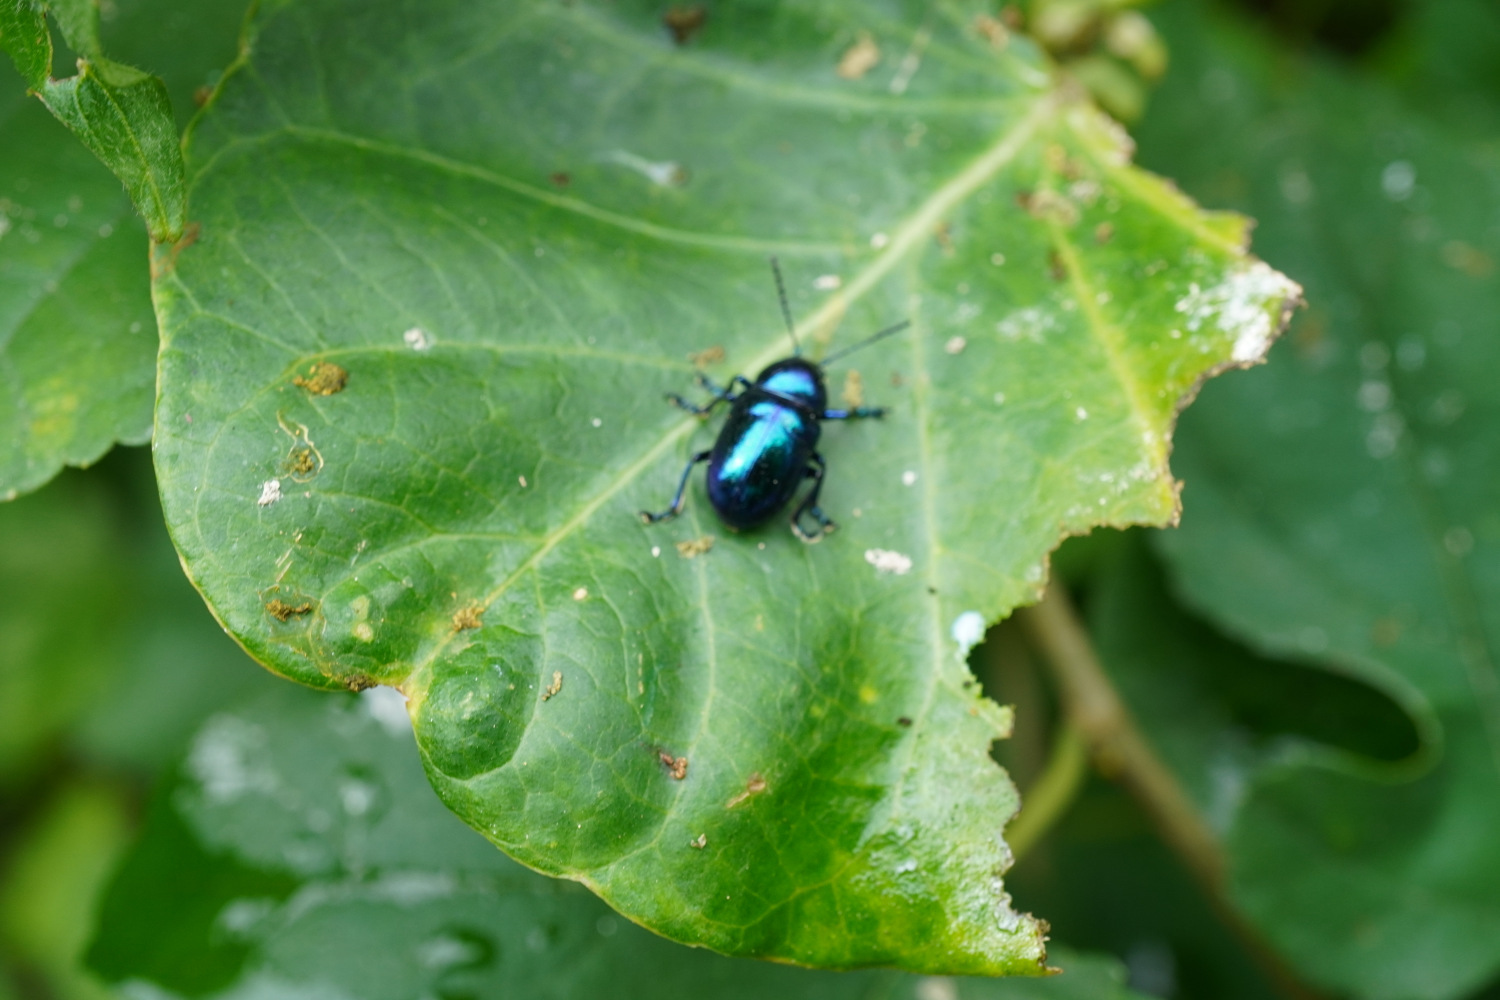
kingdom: Animalia
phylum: Arthropoda
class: Insecta
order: Coleoptera
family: Chrysomelidae
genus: Chrysochus
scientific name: Chrysochus chinensis
